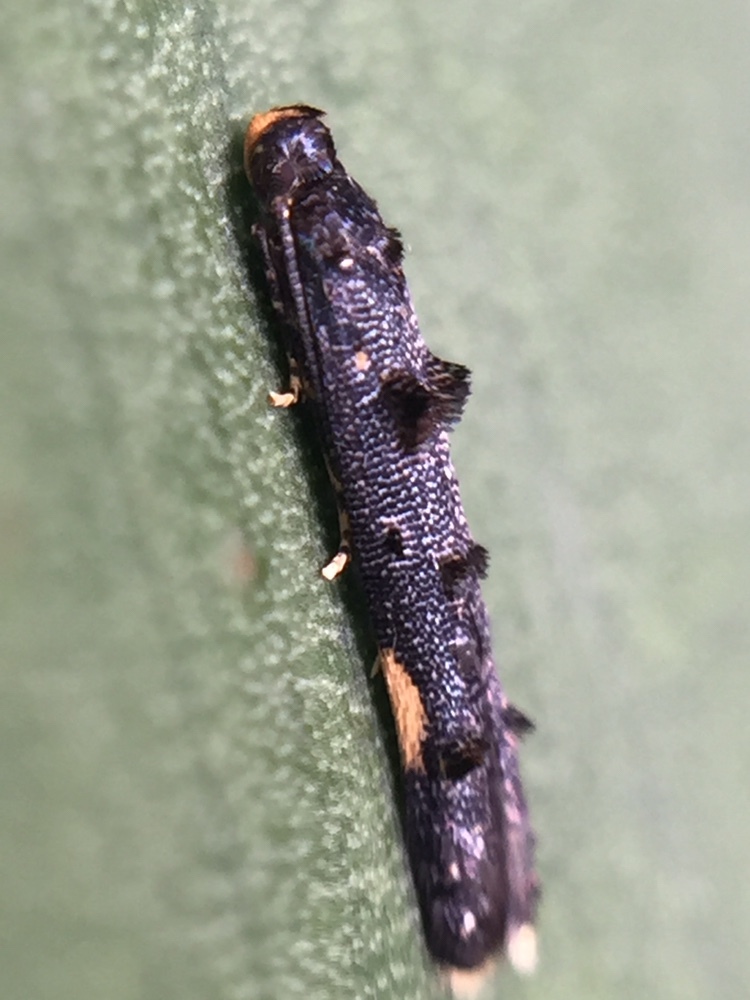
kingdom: Animalia
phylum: Arthropoda
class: Insecta
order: Lepidoptera
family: Elachistidae
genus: Microcolona
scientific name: Microcolona
